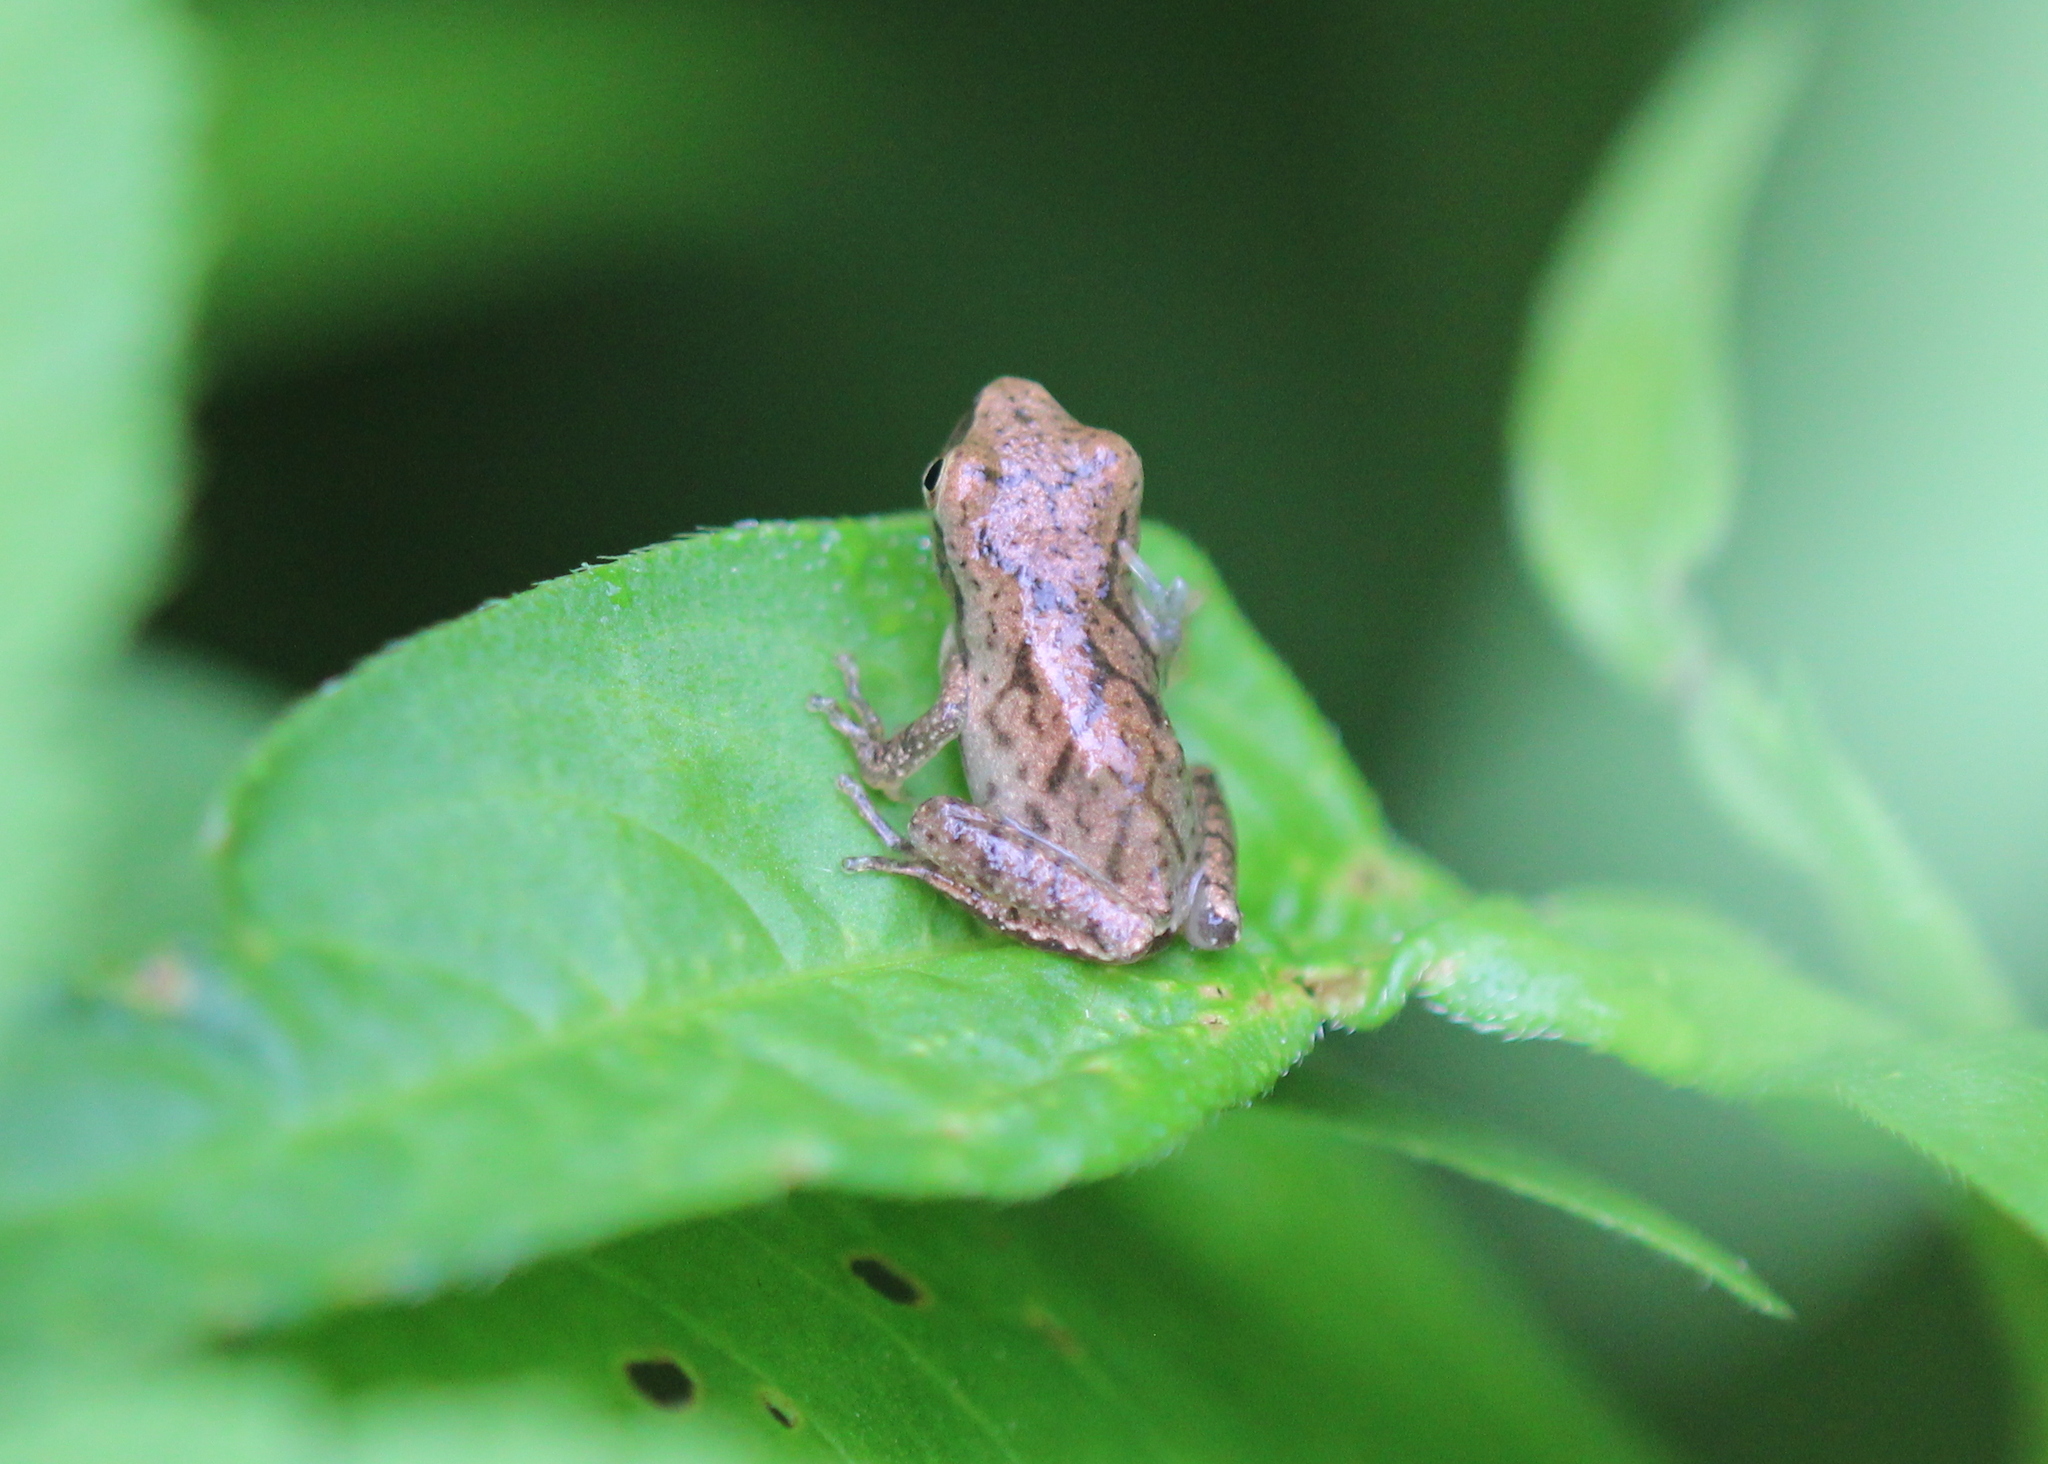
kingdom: Animalia
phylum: Chordata
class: Amphibia
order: Anura
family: Hylidae
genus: Pseudacris
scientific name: Pseudacris crucifer
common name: Spring peeper
